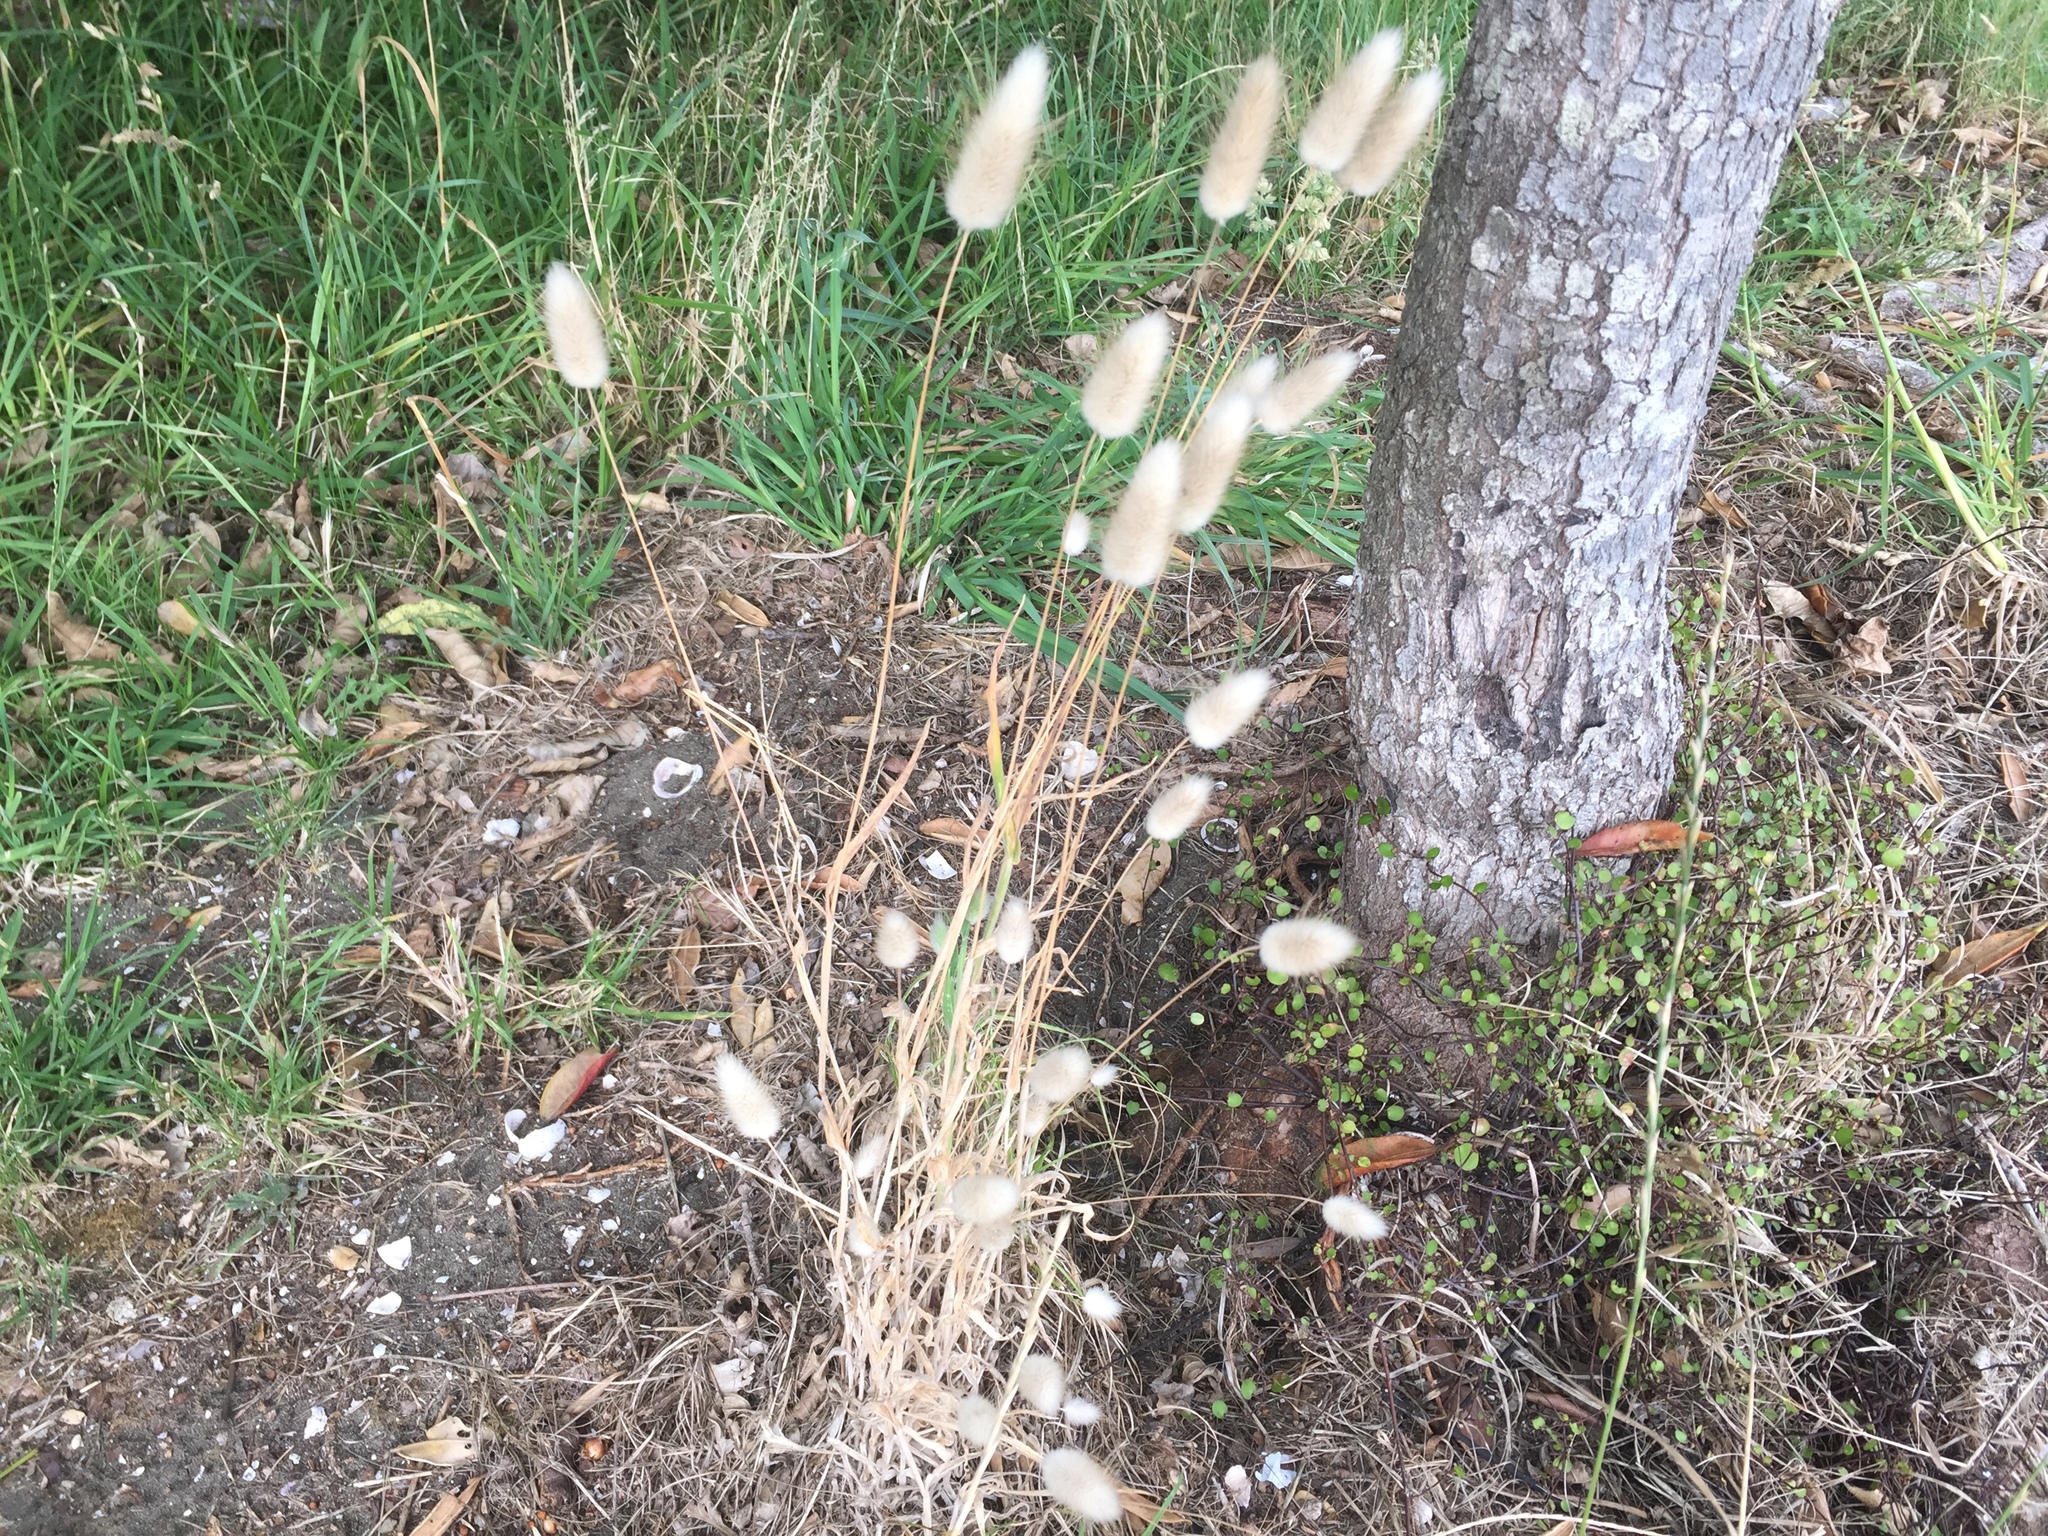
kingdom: Plantae
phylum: Tracheophyta
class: Liliopsida
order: Poales
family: Poaceae
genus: Lagurus
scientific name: Lagurus ovatus
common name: Hare's-tail
